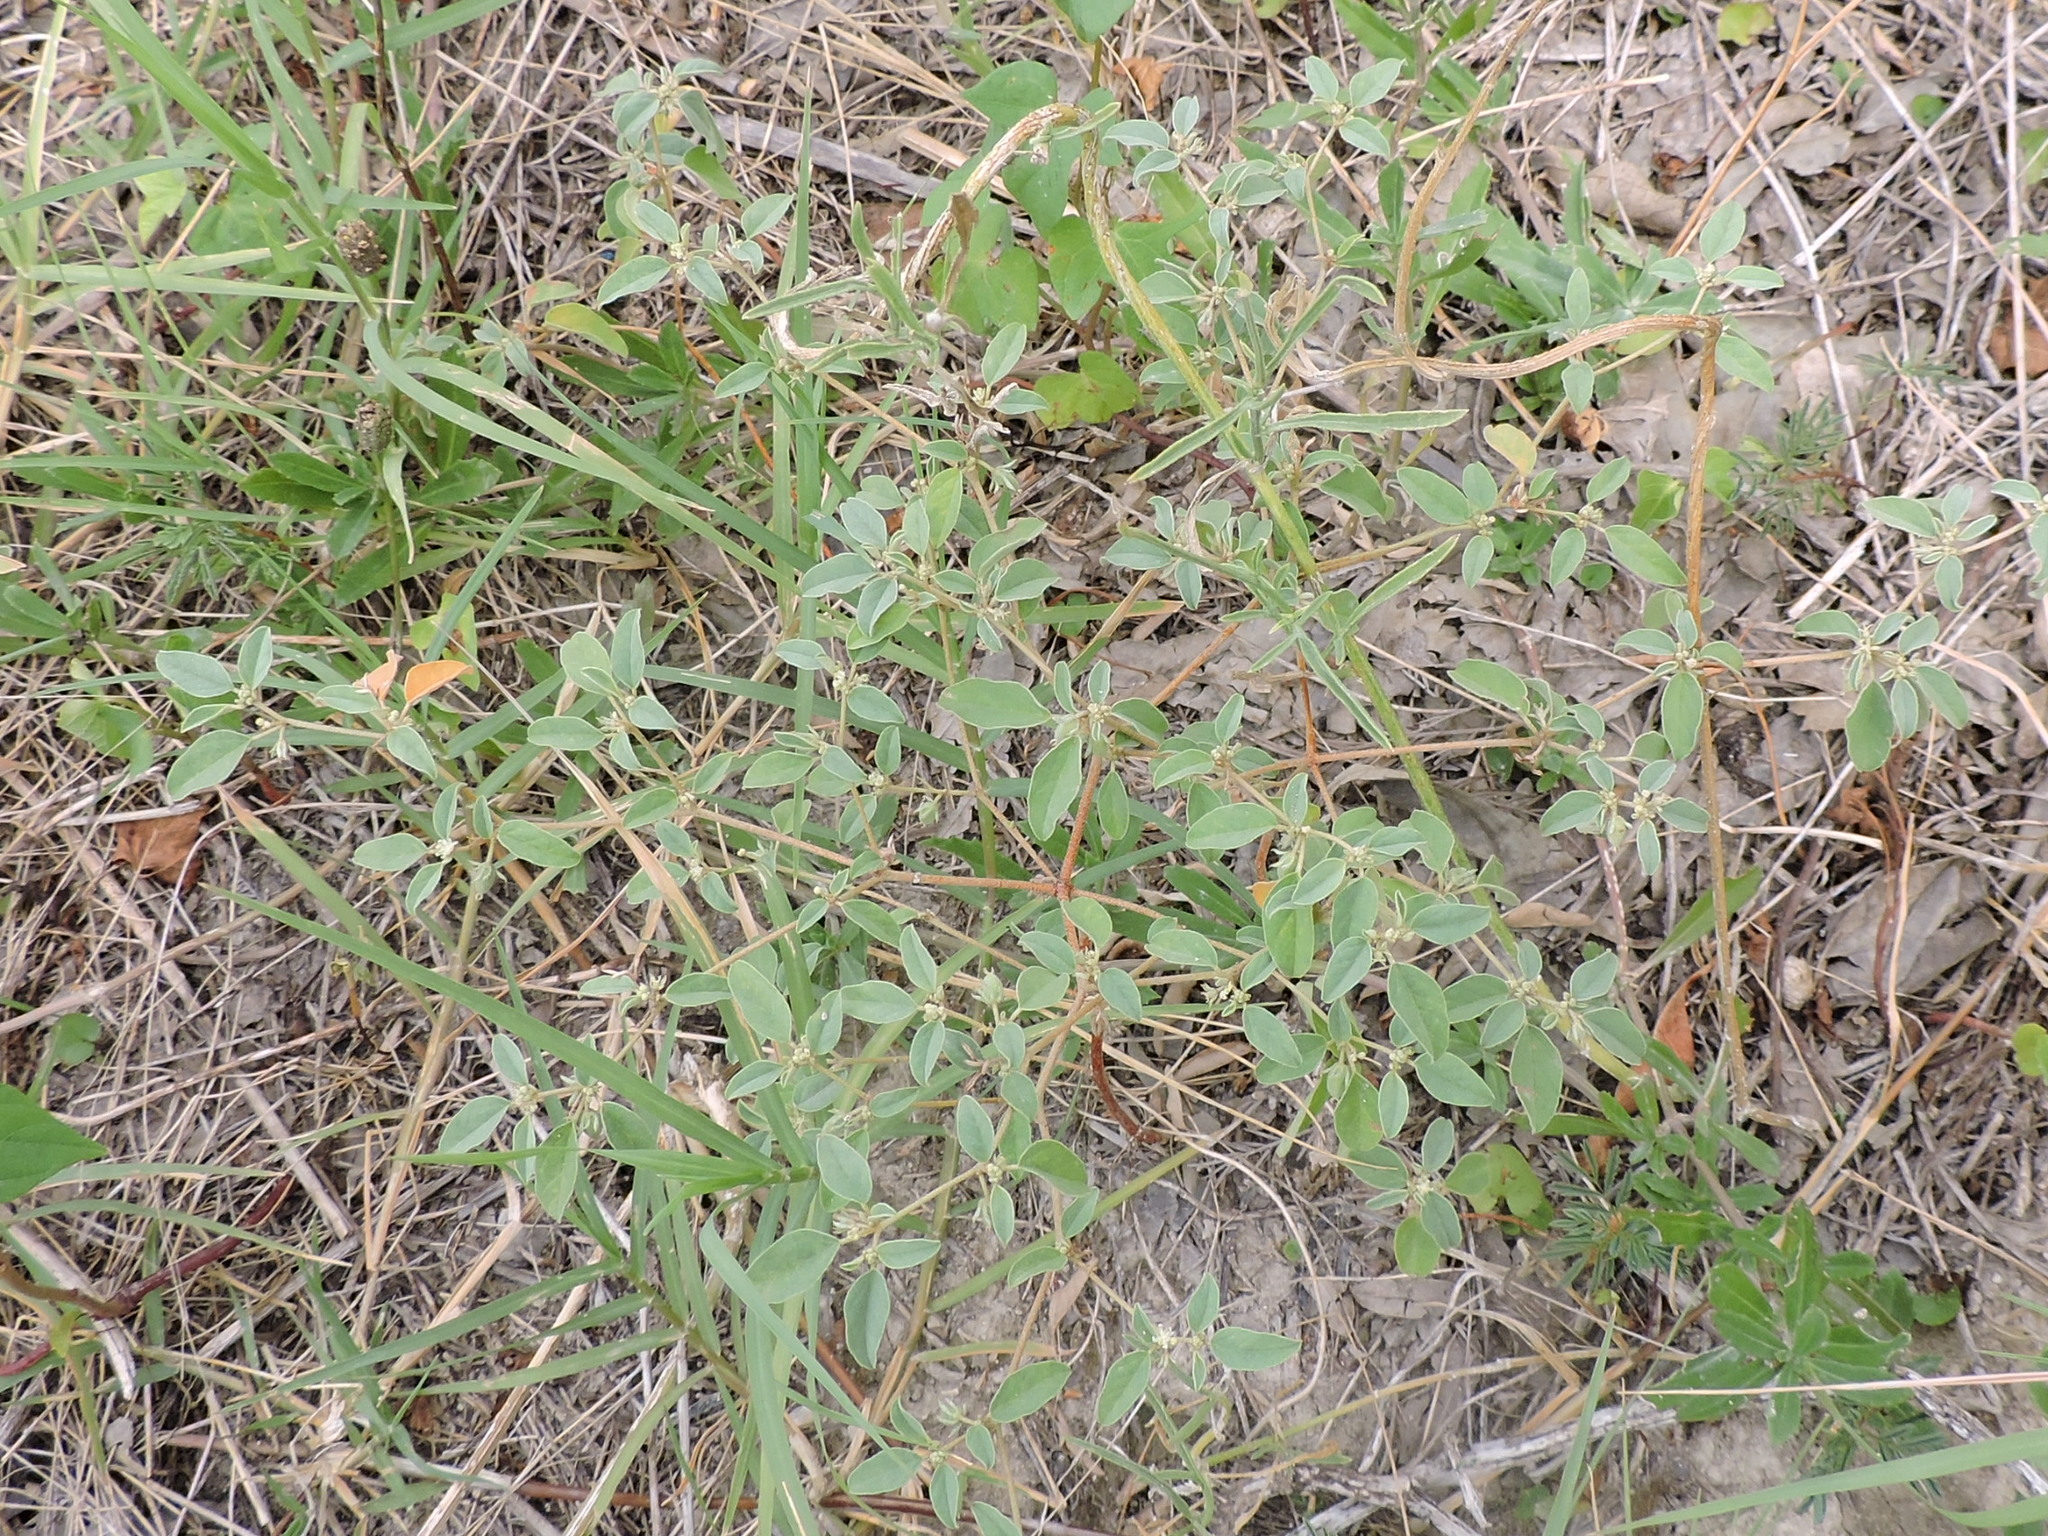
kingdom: Plantae
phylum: Tracheophyta
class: Magnoliopsida
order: Malpighiales
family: Euphorbiaceae
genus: Croton
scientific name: Croton monanthogynus
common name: One-seed croton
